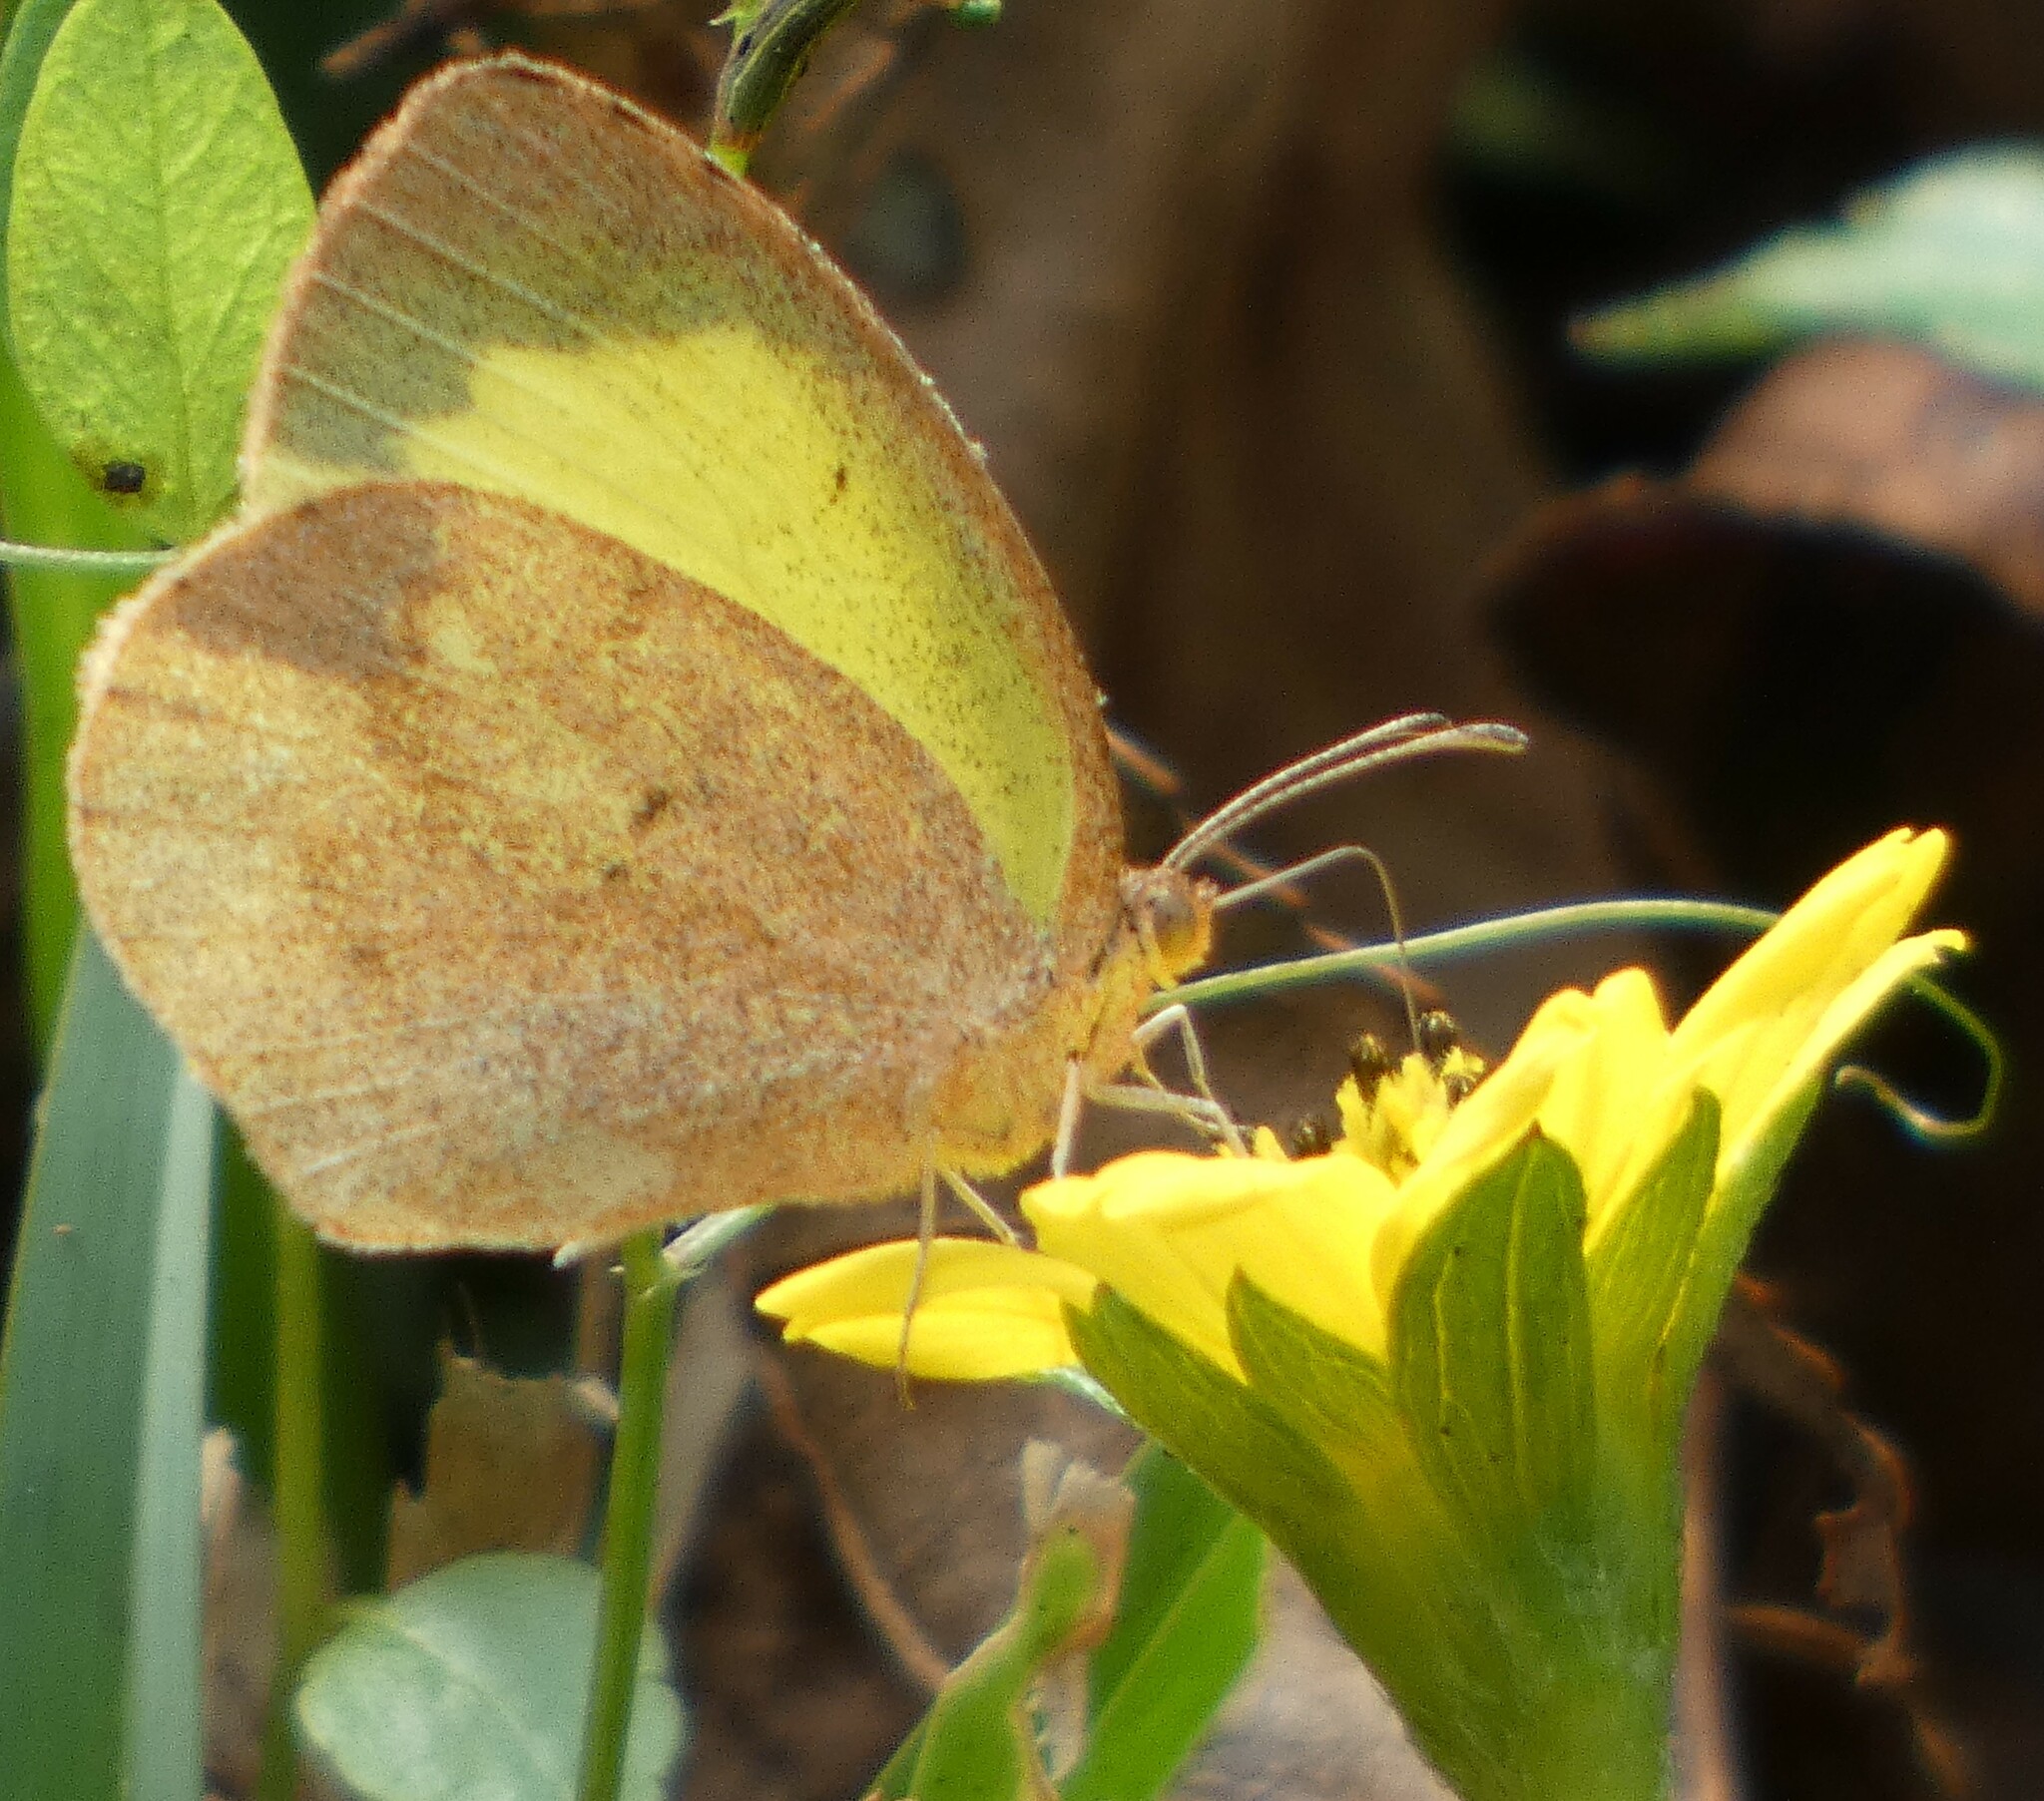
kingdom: Animalia
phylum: Arthropoda
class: Insecta
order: Lepidoptera
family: Pieridae
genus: Eurema
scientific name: Eurema daira
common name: Barred sulphur
